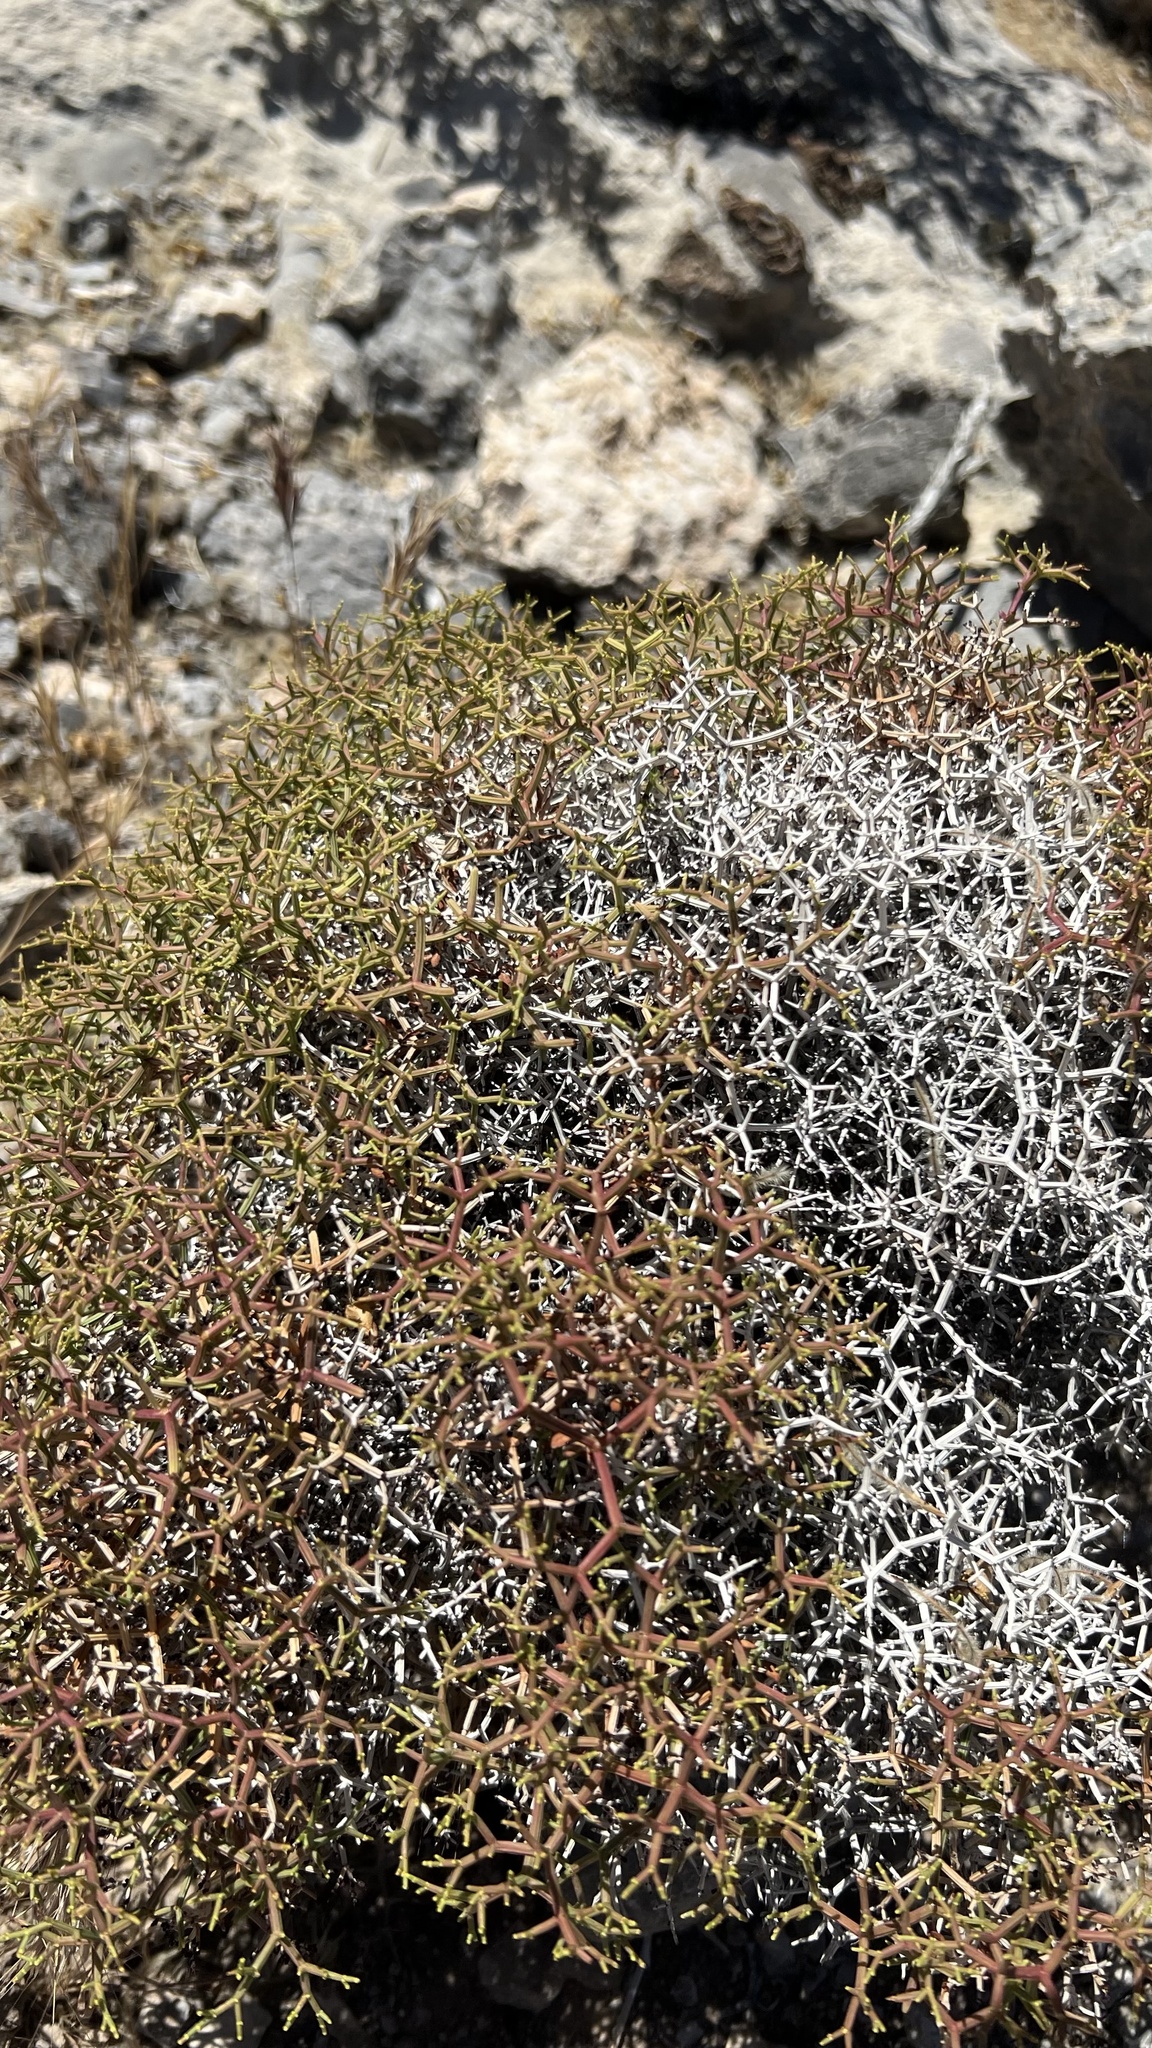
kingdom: Plantae
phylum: Tracheophyta
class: Magnoliopsida
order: Caryophyllales
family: Polygonaceae
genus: Eriogonum
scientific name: Eriogonum heermannii
